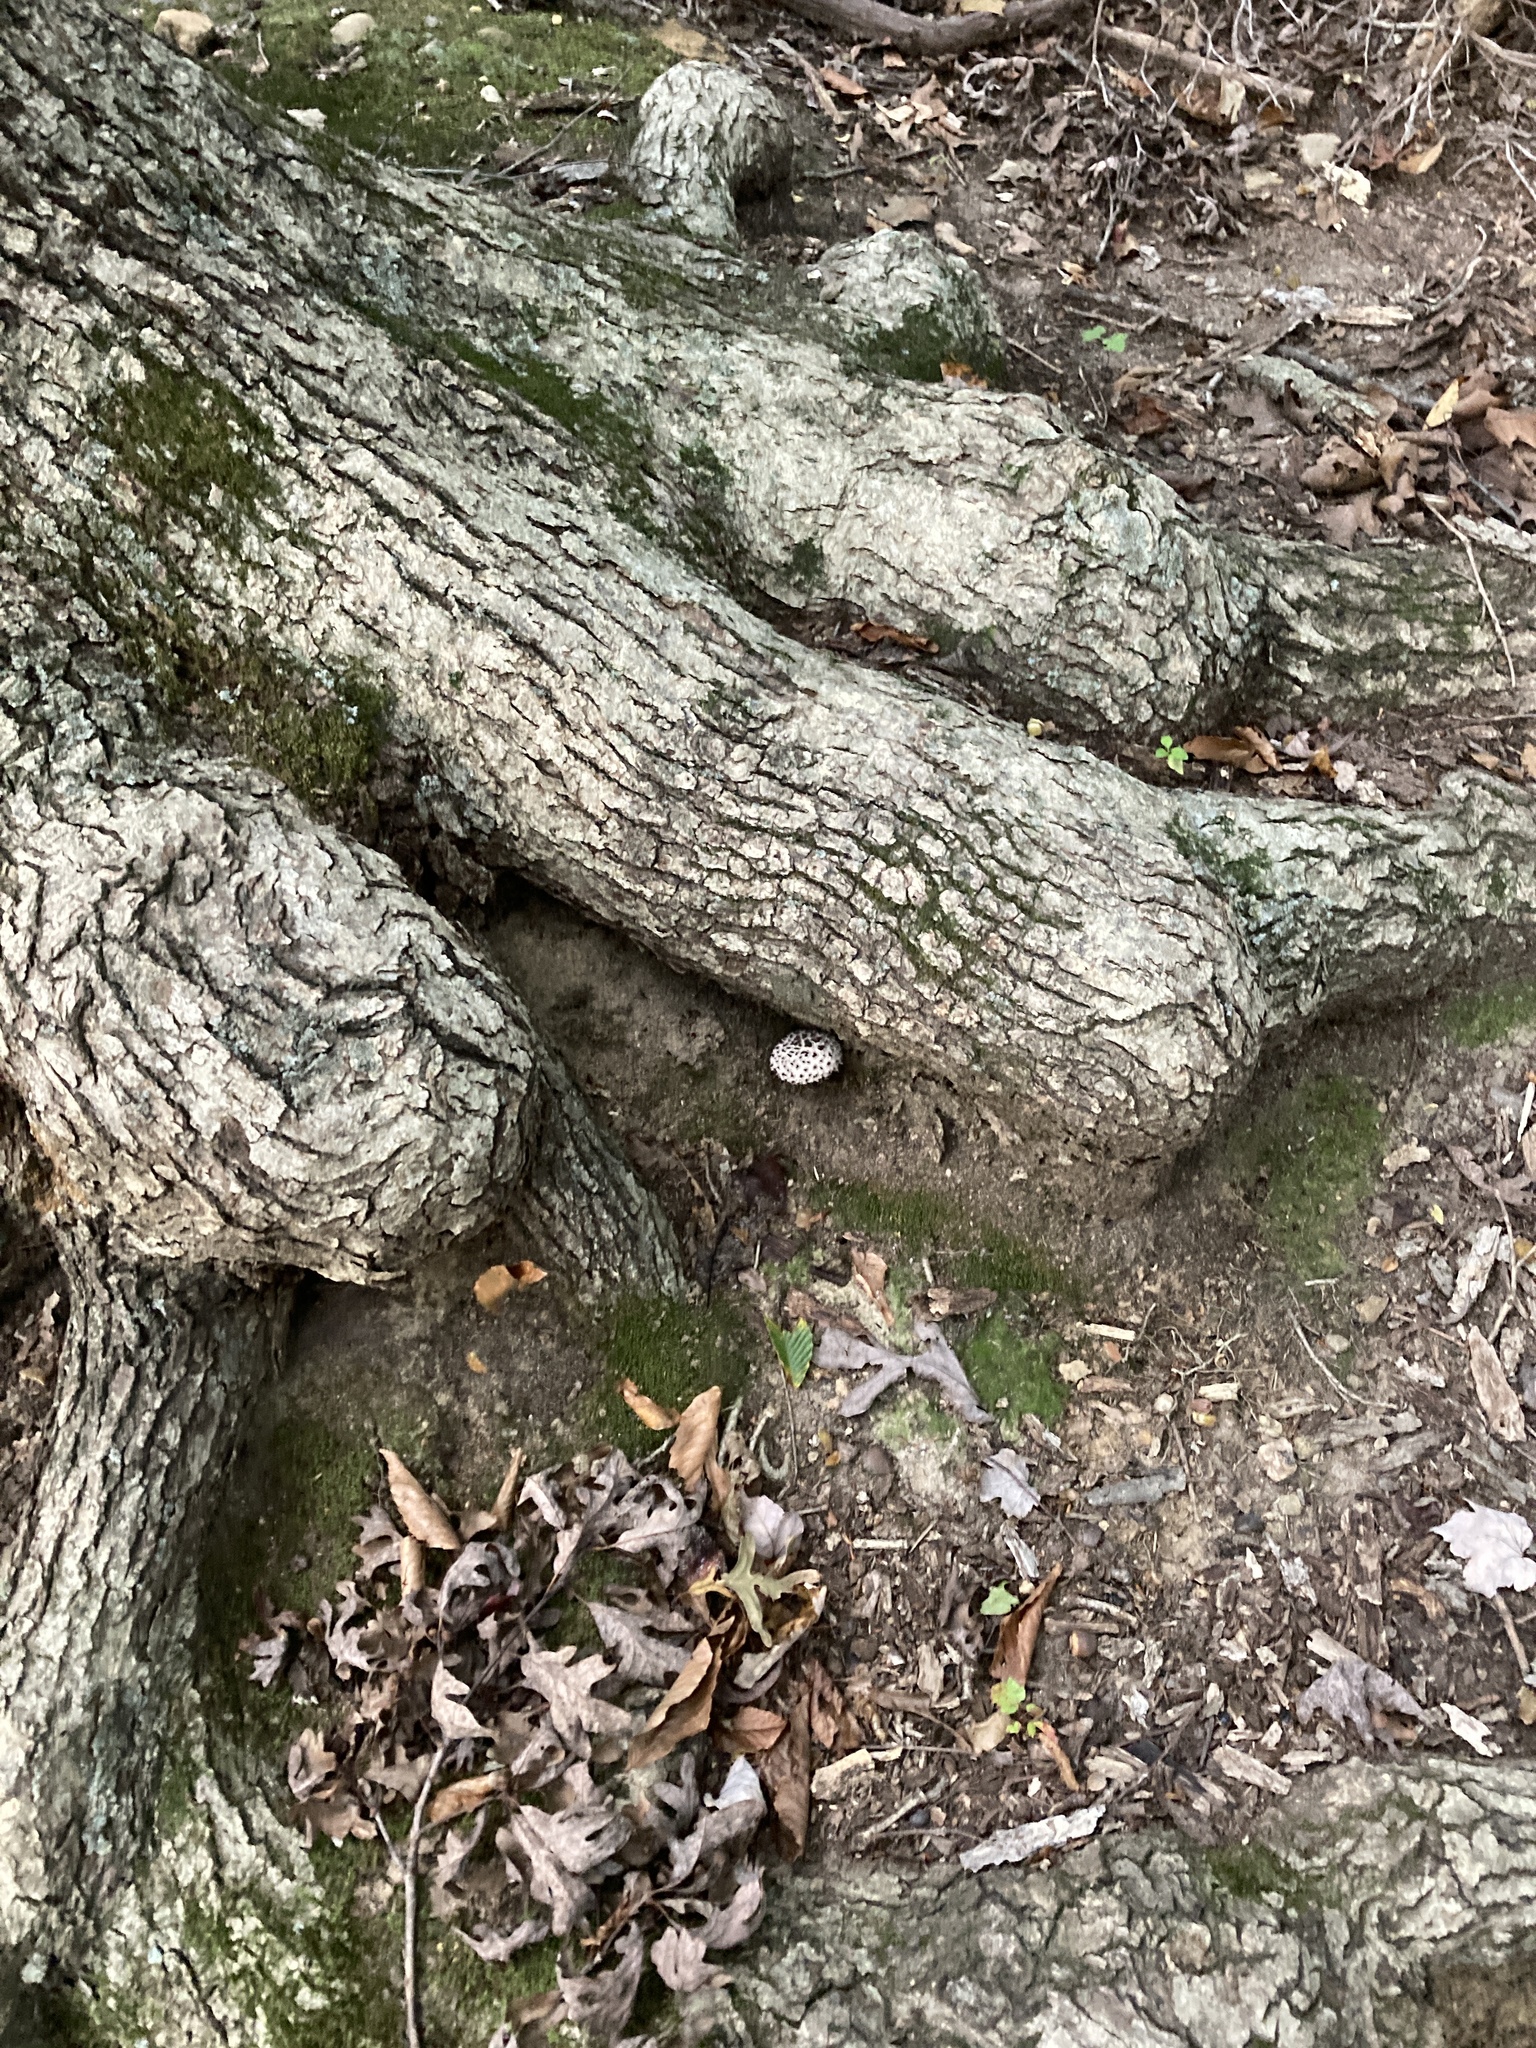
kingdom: Fungi
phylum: Basidiomycota
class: Agaricomycetes
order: Boletales
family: Boletaceae
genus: Strobilomyces
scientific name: Strobilomyces strobilaceus
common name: Old man of the woods
